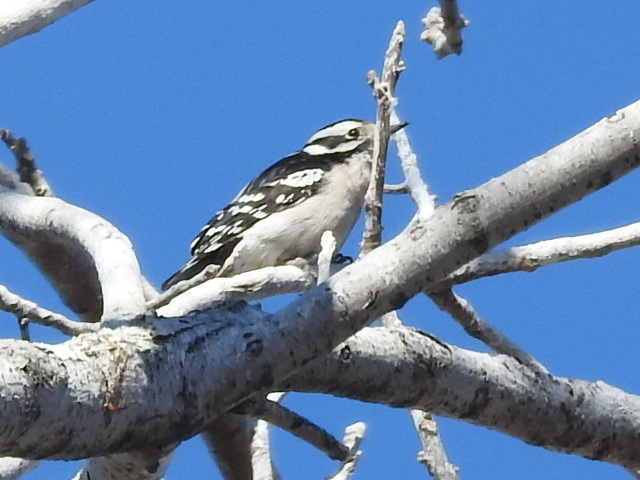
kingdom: Animalia
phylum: Chordata
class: Aves
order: Piciformes
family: Picidae
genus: Dryobates
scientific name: Dryobates pubescens
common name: Downy woodpecker
